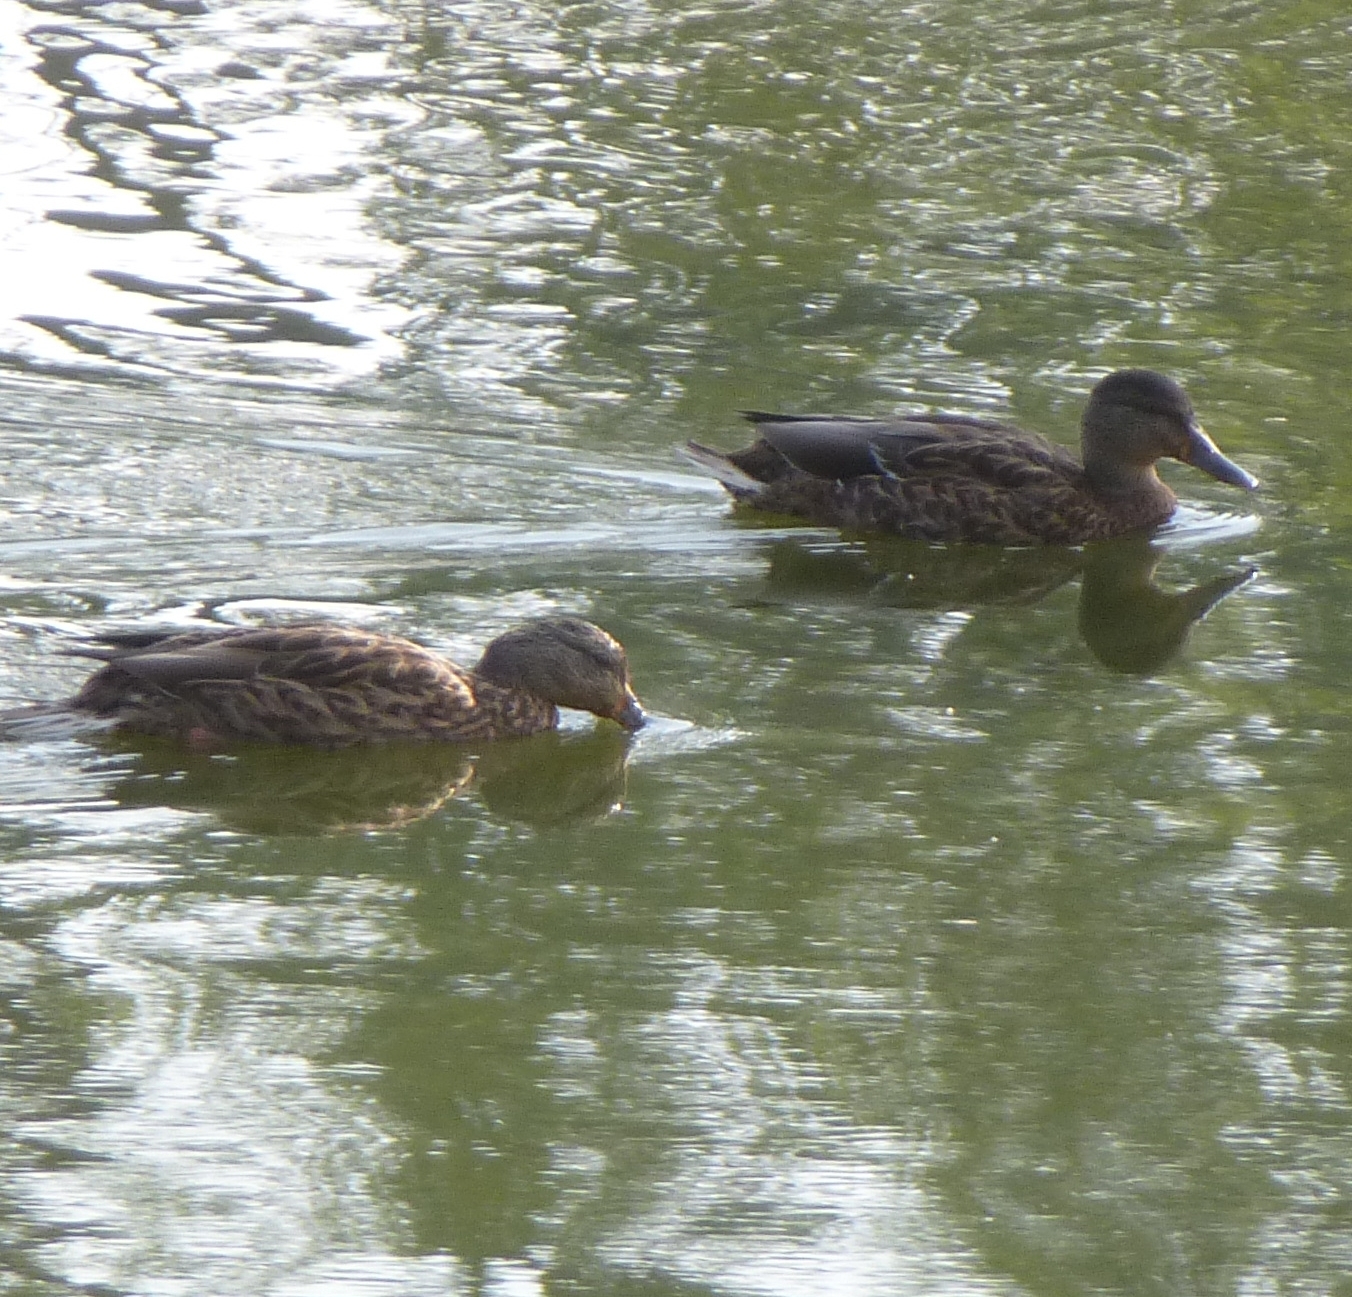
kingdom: Animalia
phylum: Chordata
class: Aves
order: Anseriformes
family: Anatidae
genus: Anas
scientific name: Anas platyrhynchos
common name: Mallard
